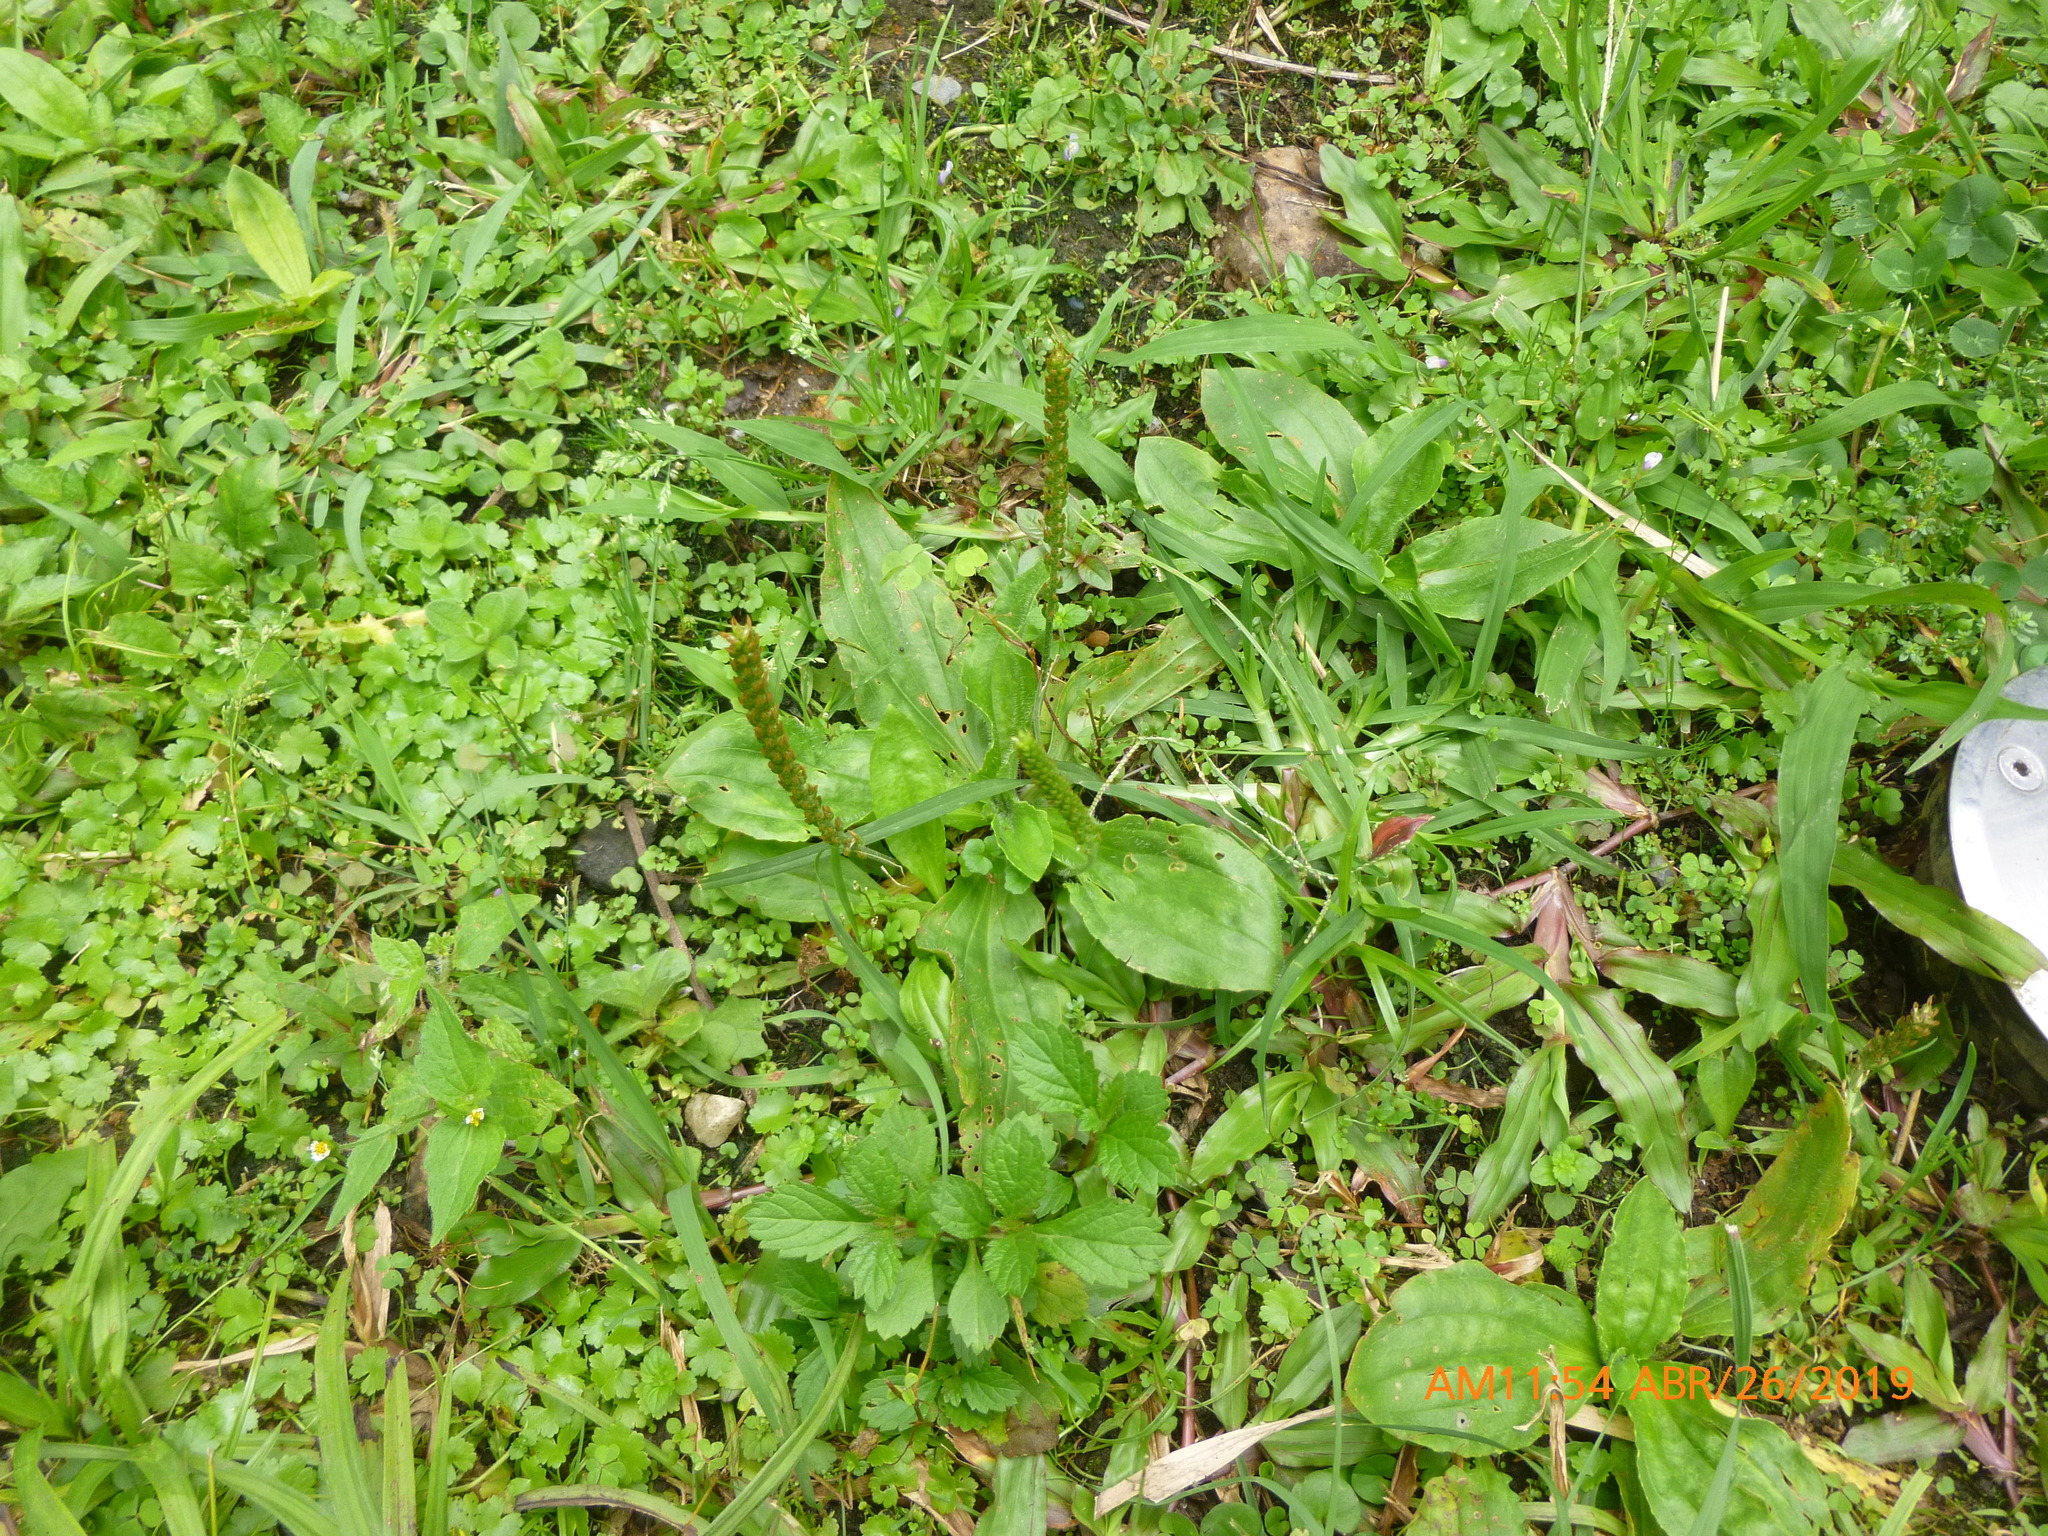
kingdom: Plantae
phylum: Tracheophyta
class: Magnoliopsida
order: Lamiales
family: Plantaginaceae
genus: Plantago
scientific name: Plantago australis
